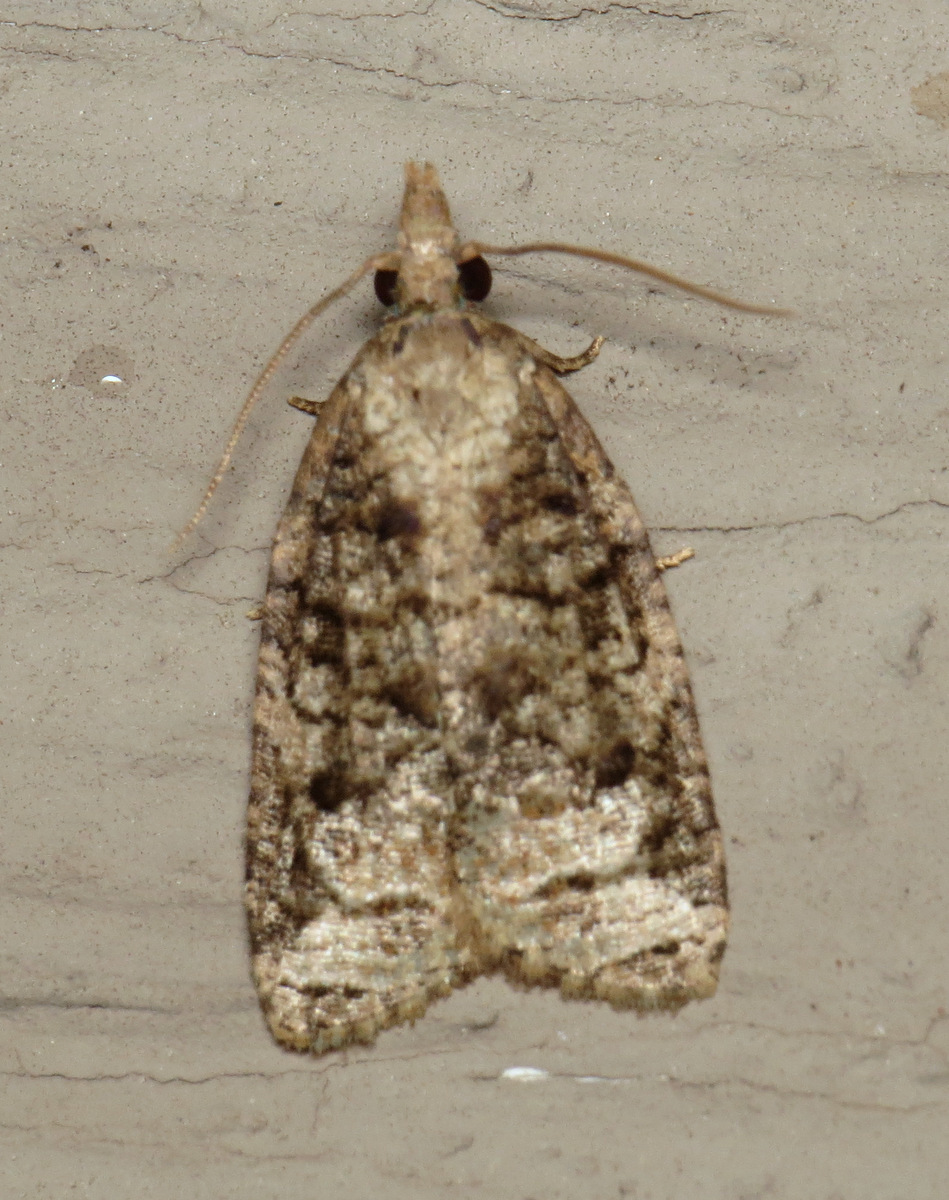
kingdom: Animalia
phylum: Arthropoda
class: Insecta
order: Lepidoptera
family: Tortricidae
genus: Platynota
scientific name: Platynota exasperatana
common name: Exasperating platynota moth
